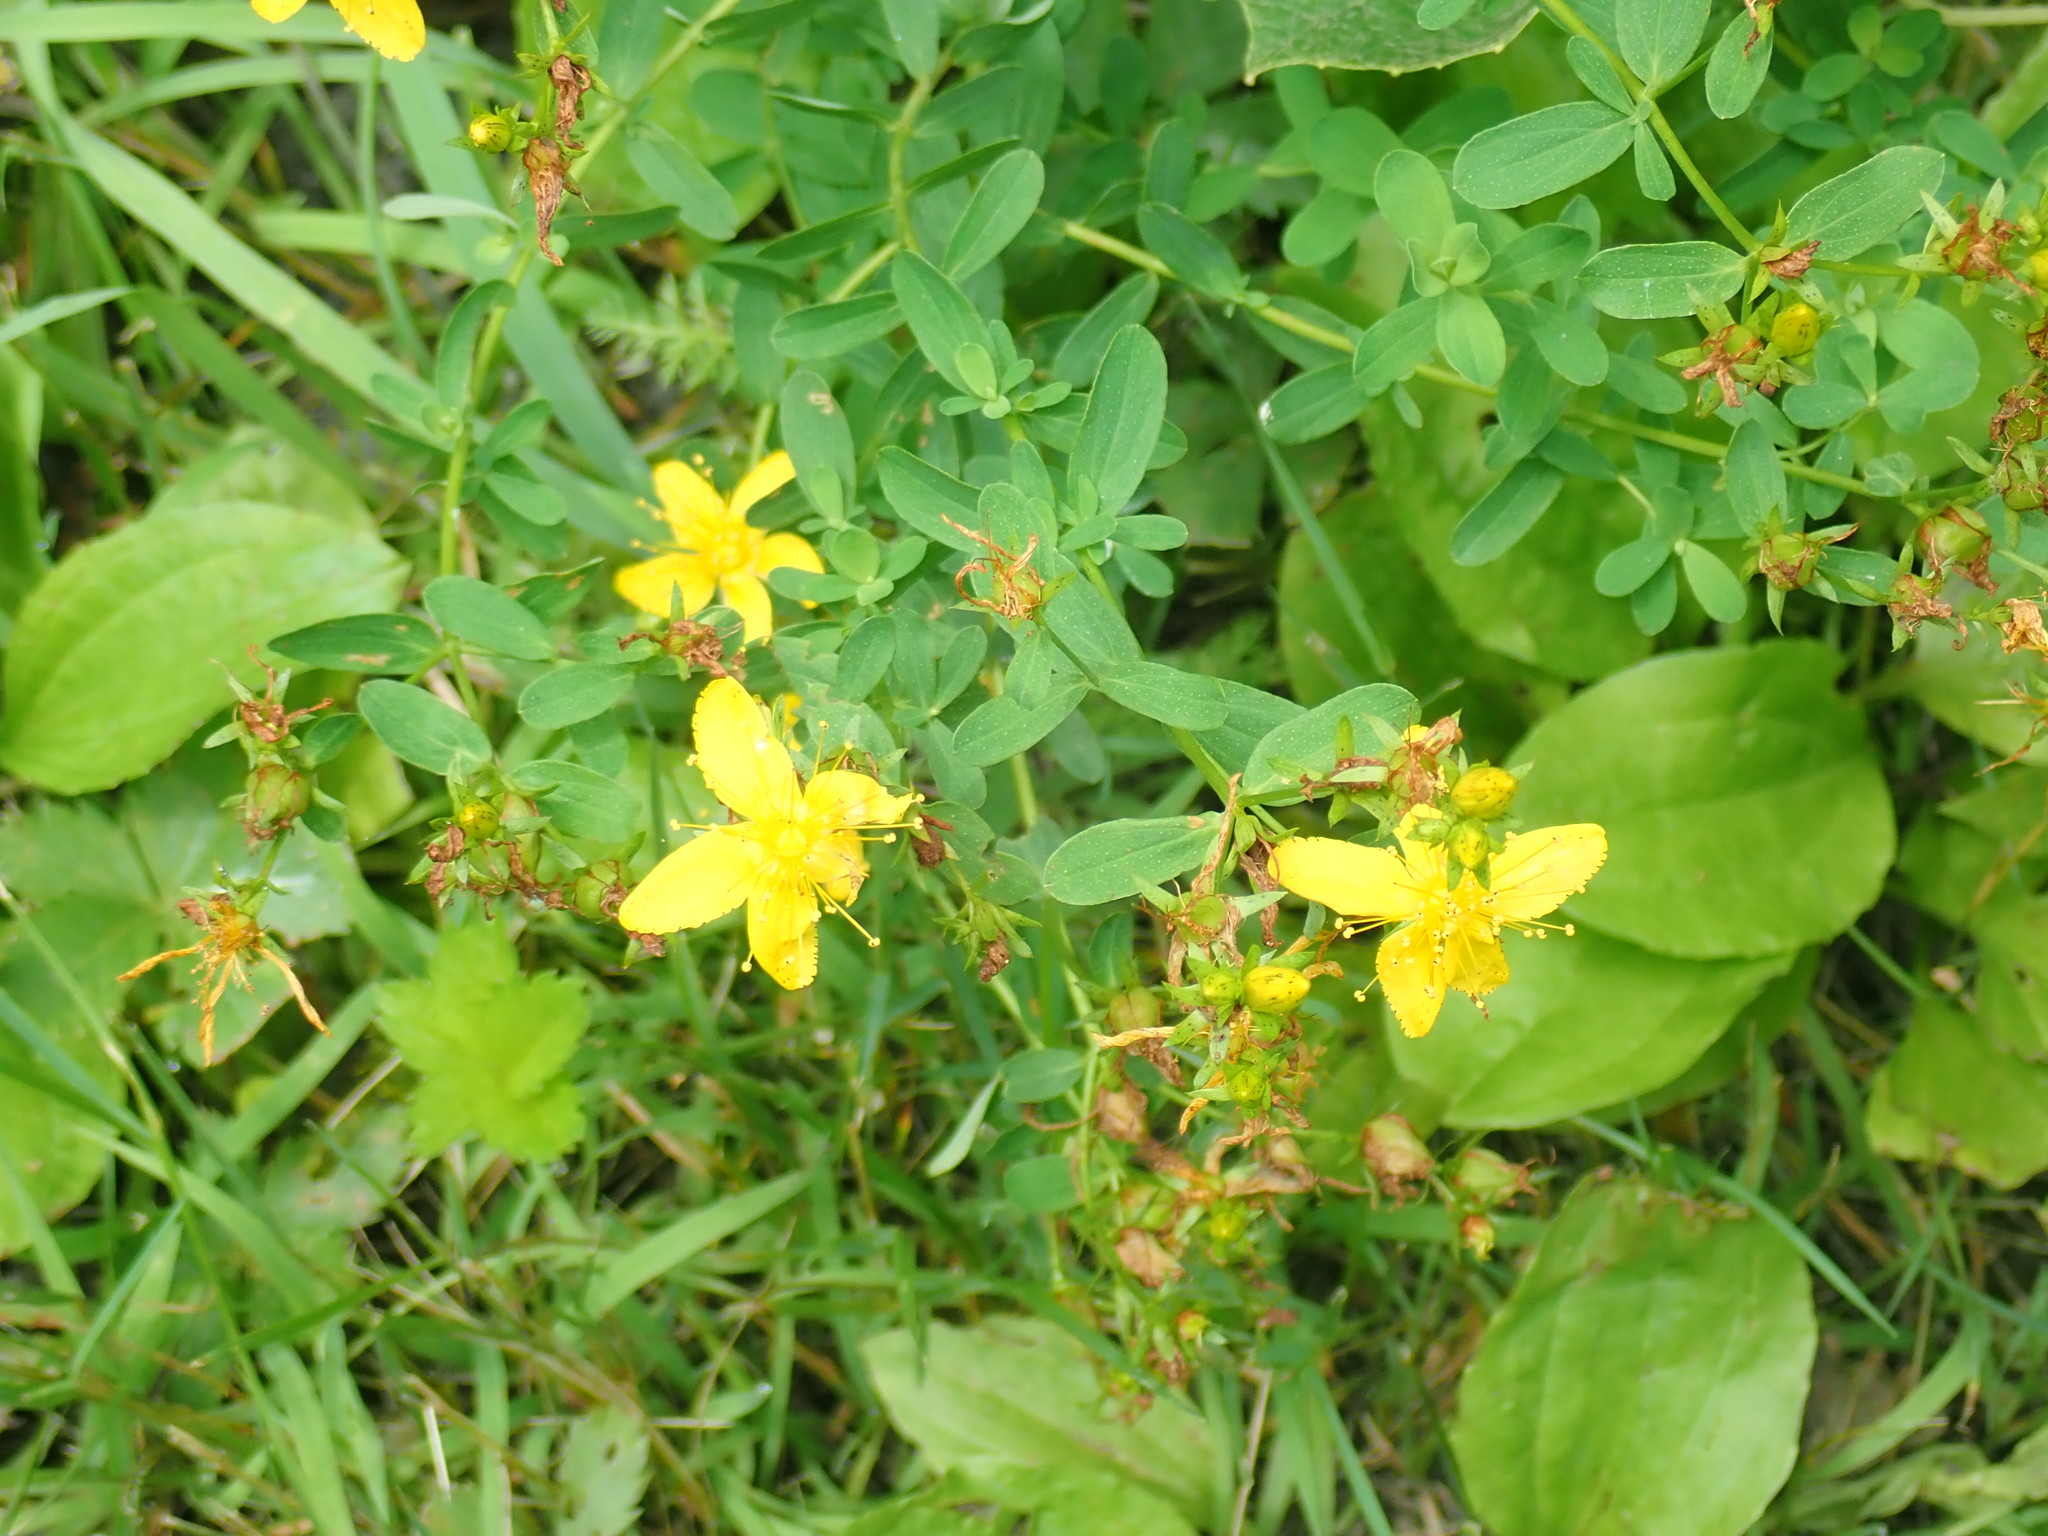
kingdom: Plantae
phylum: Tracheophyta
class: Magnoliopsida
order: Malpighiales
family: Hypericaceae
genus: Hypericum
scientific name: Hypericum perforatum
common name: Common st. johnswort
